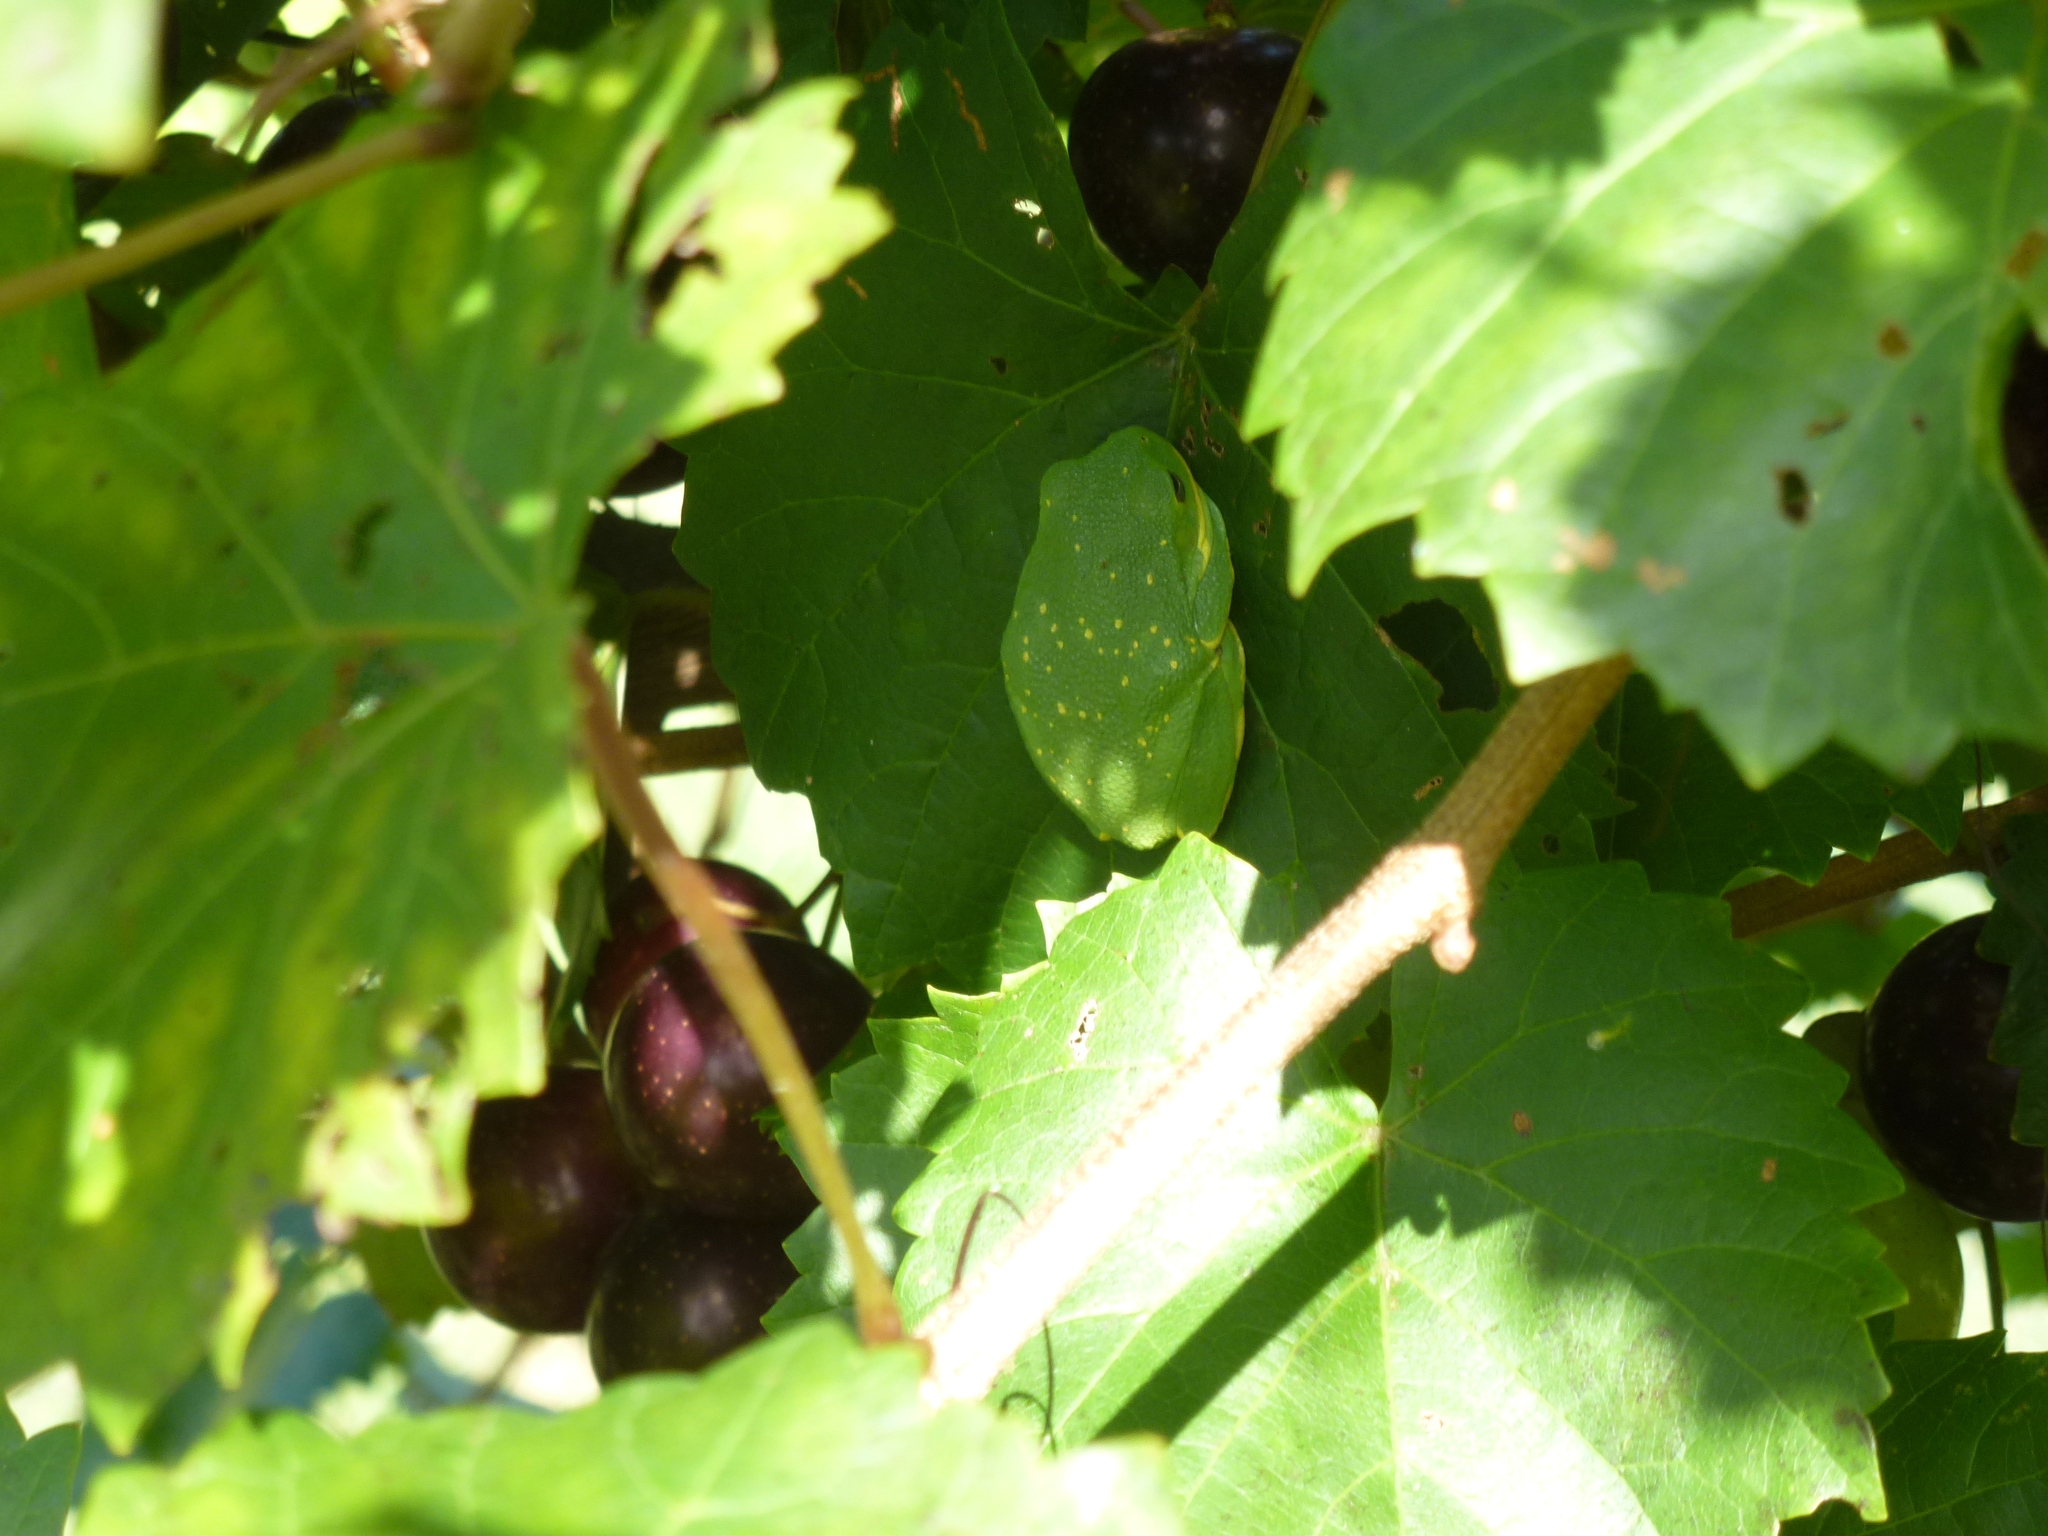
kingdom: Animalia
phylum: Chordata
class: Amphibia
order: Anura
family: Hylidae
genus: Dryophytes
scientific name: Dryophytes gratiosus
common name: Barking treefrog
